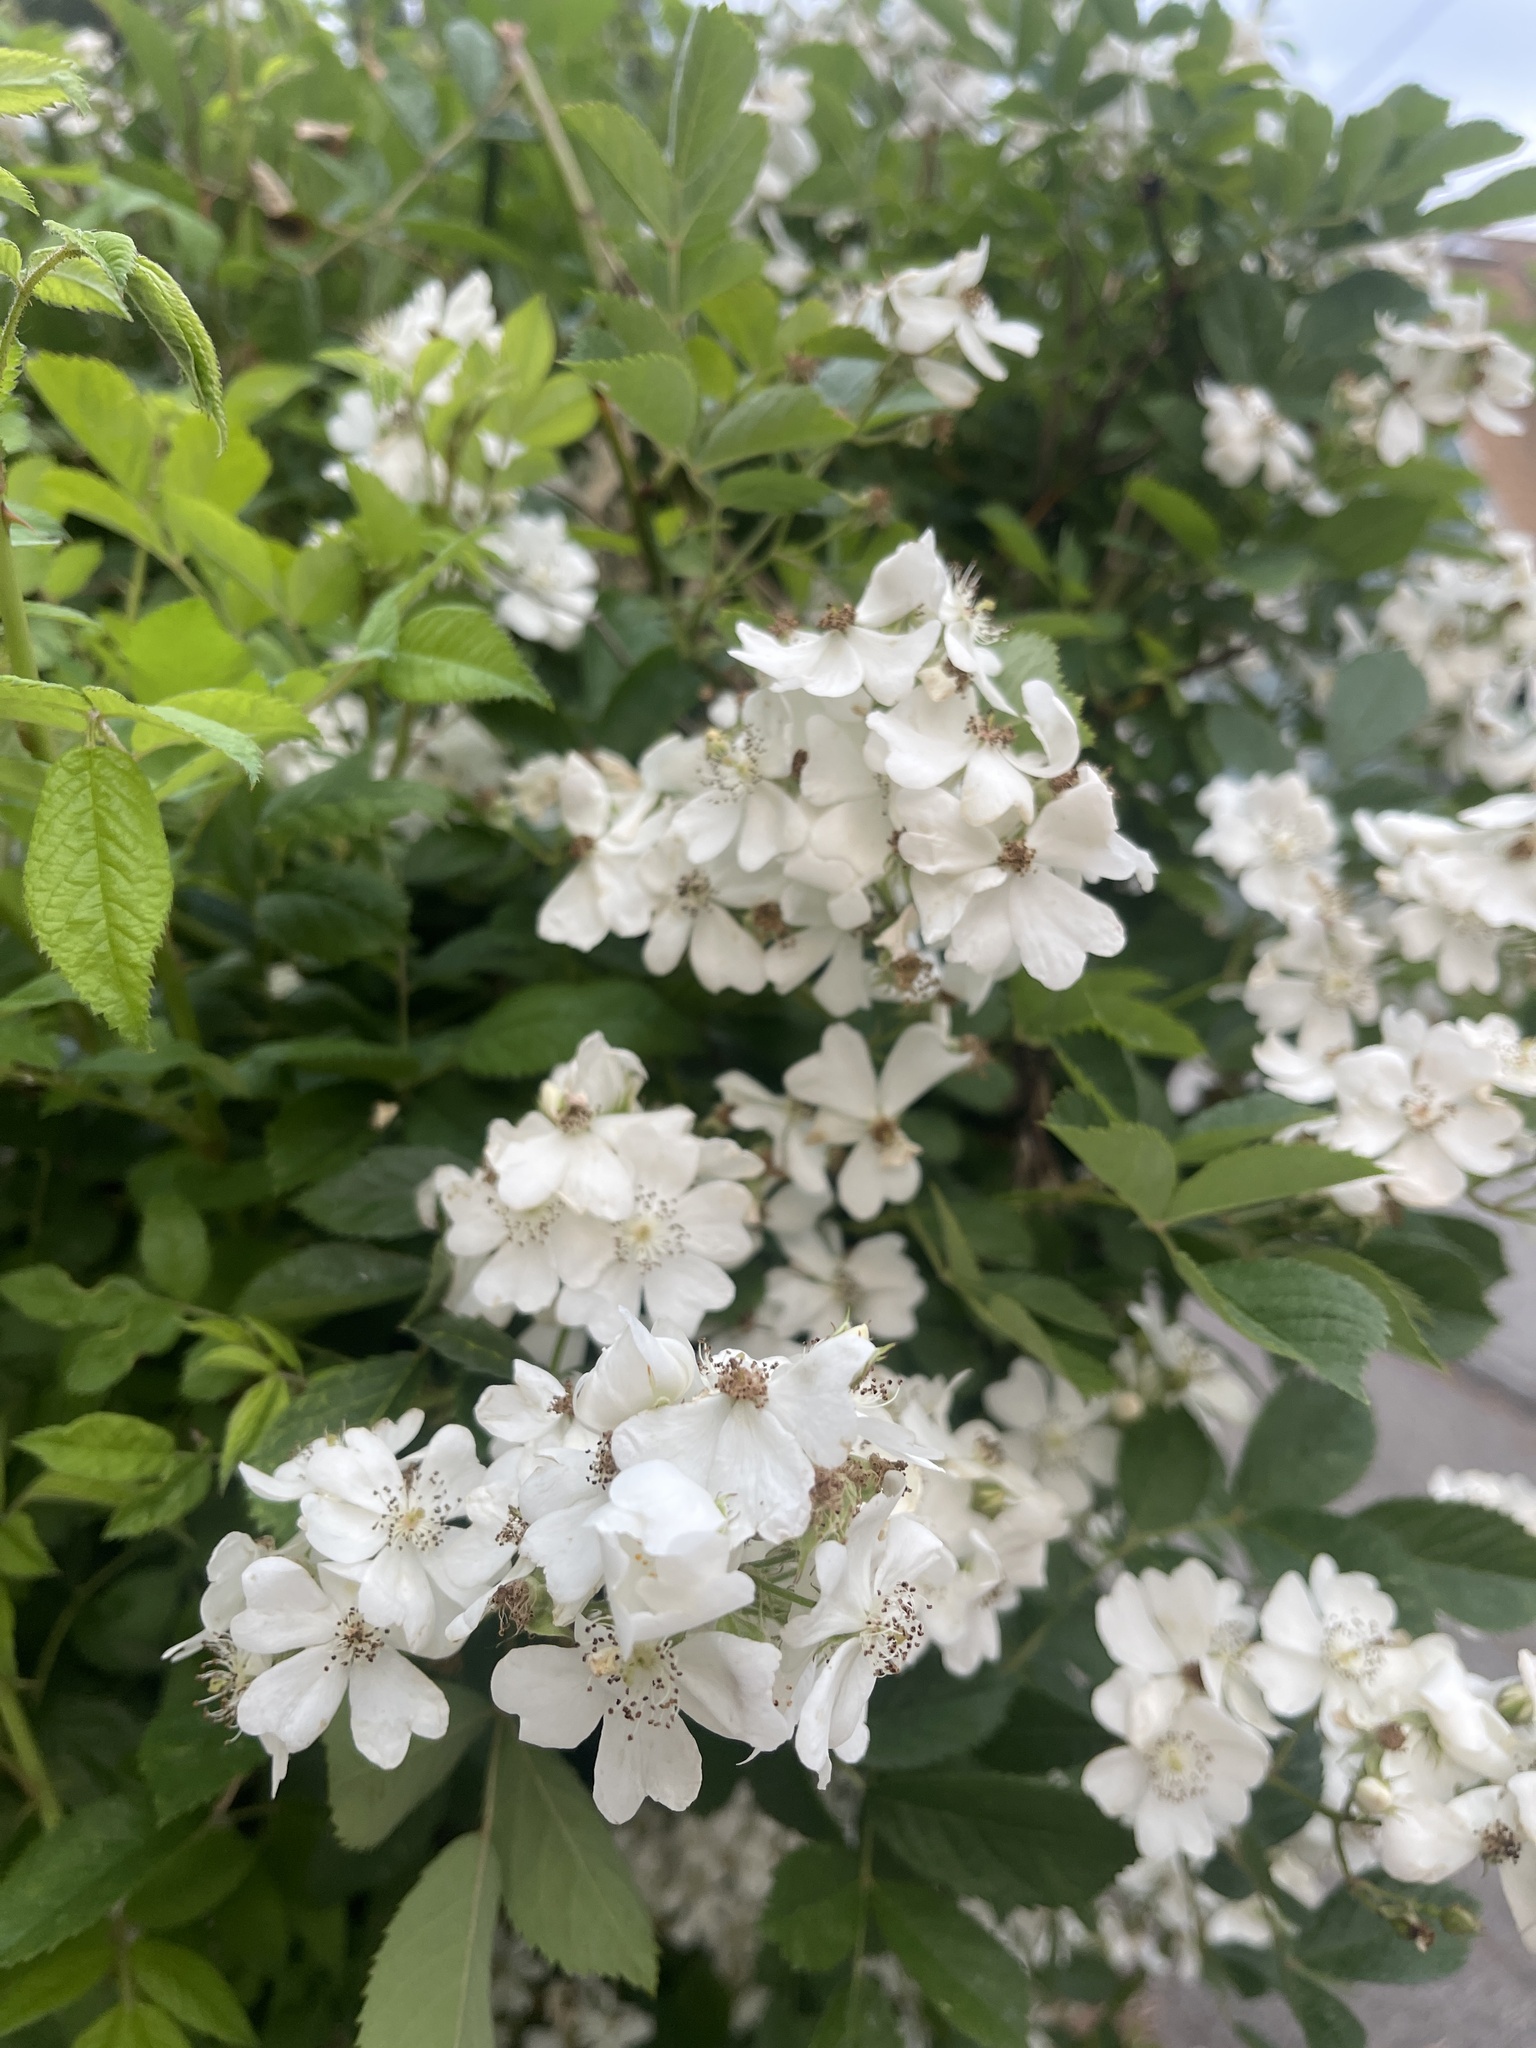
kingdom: Plantae
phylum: Tracheophyta
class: Magnoliopsida
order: Rosales
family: Rosaceae
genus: Rosa
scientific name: Rosa multiflora
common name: Multiflora rose
